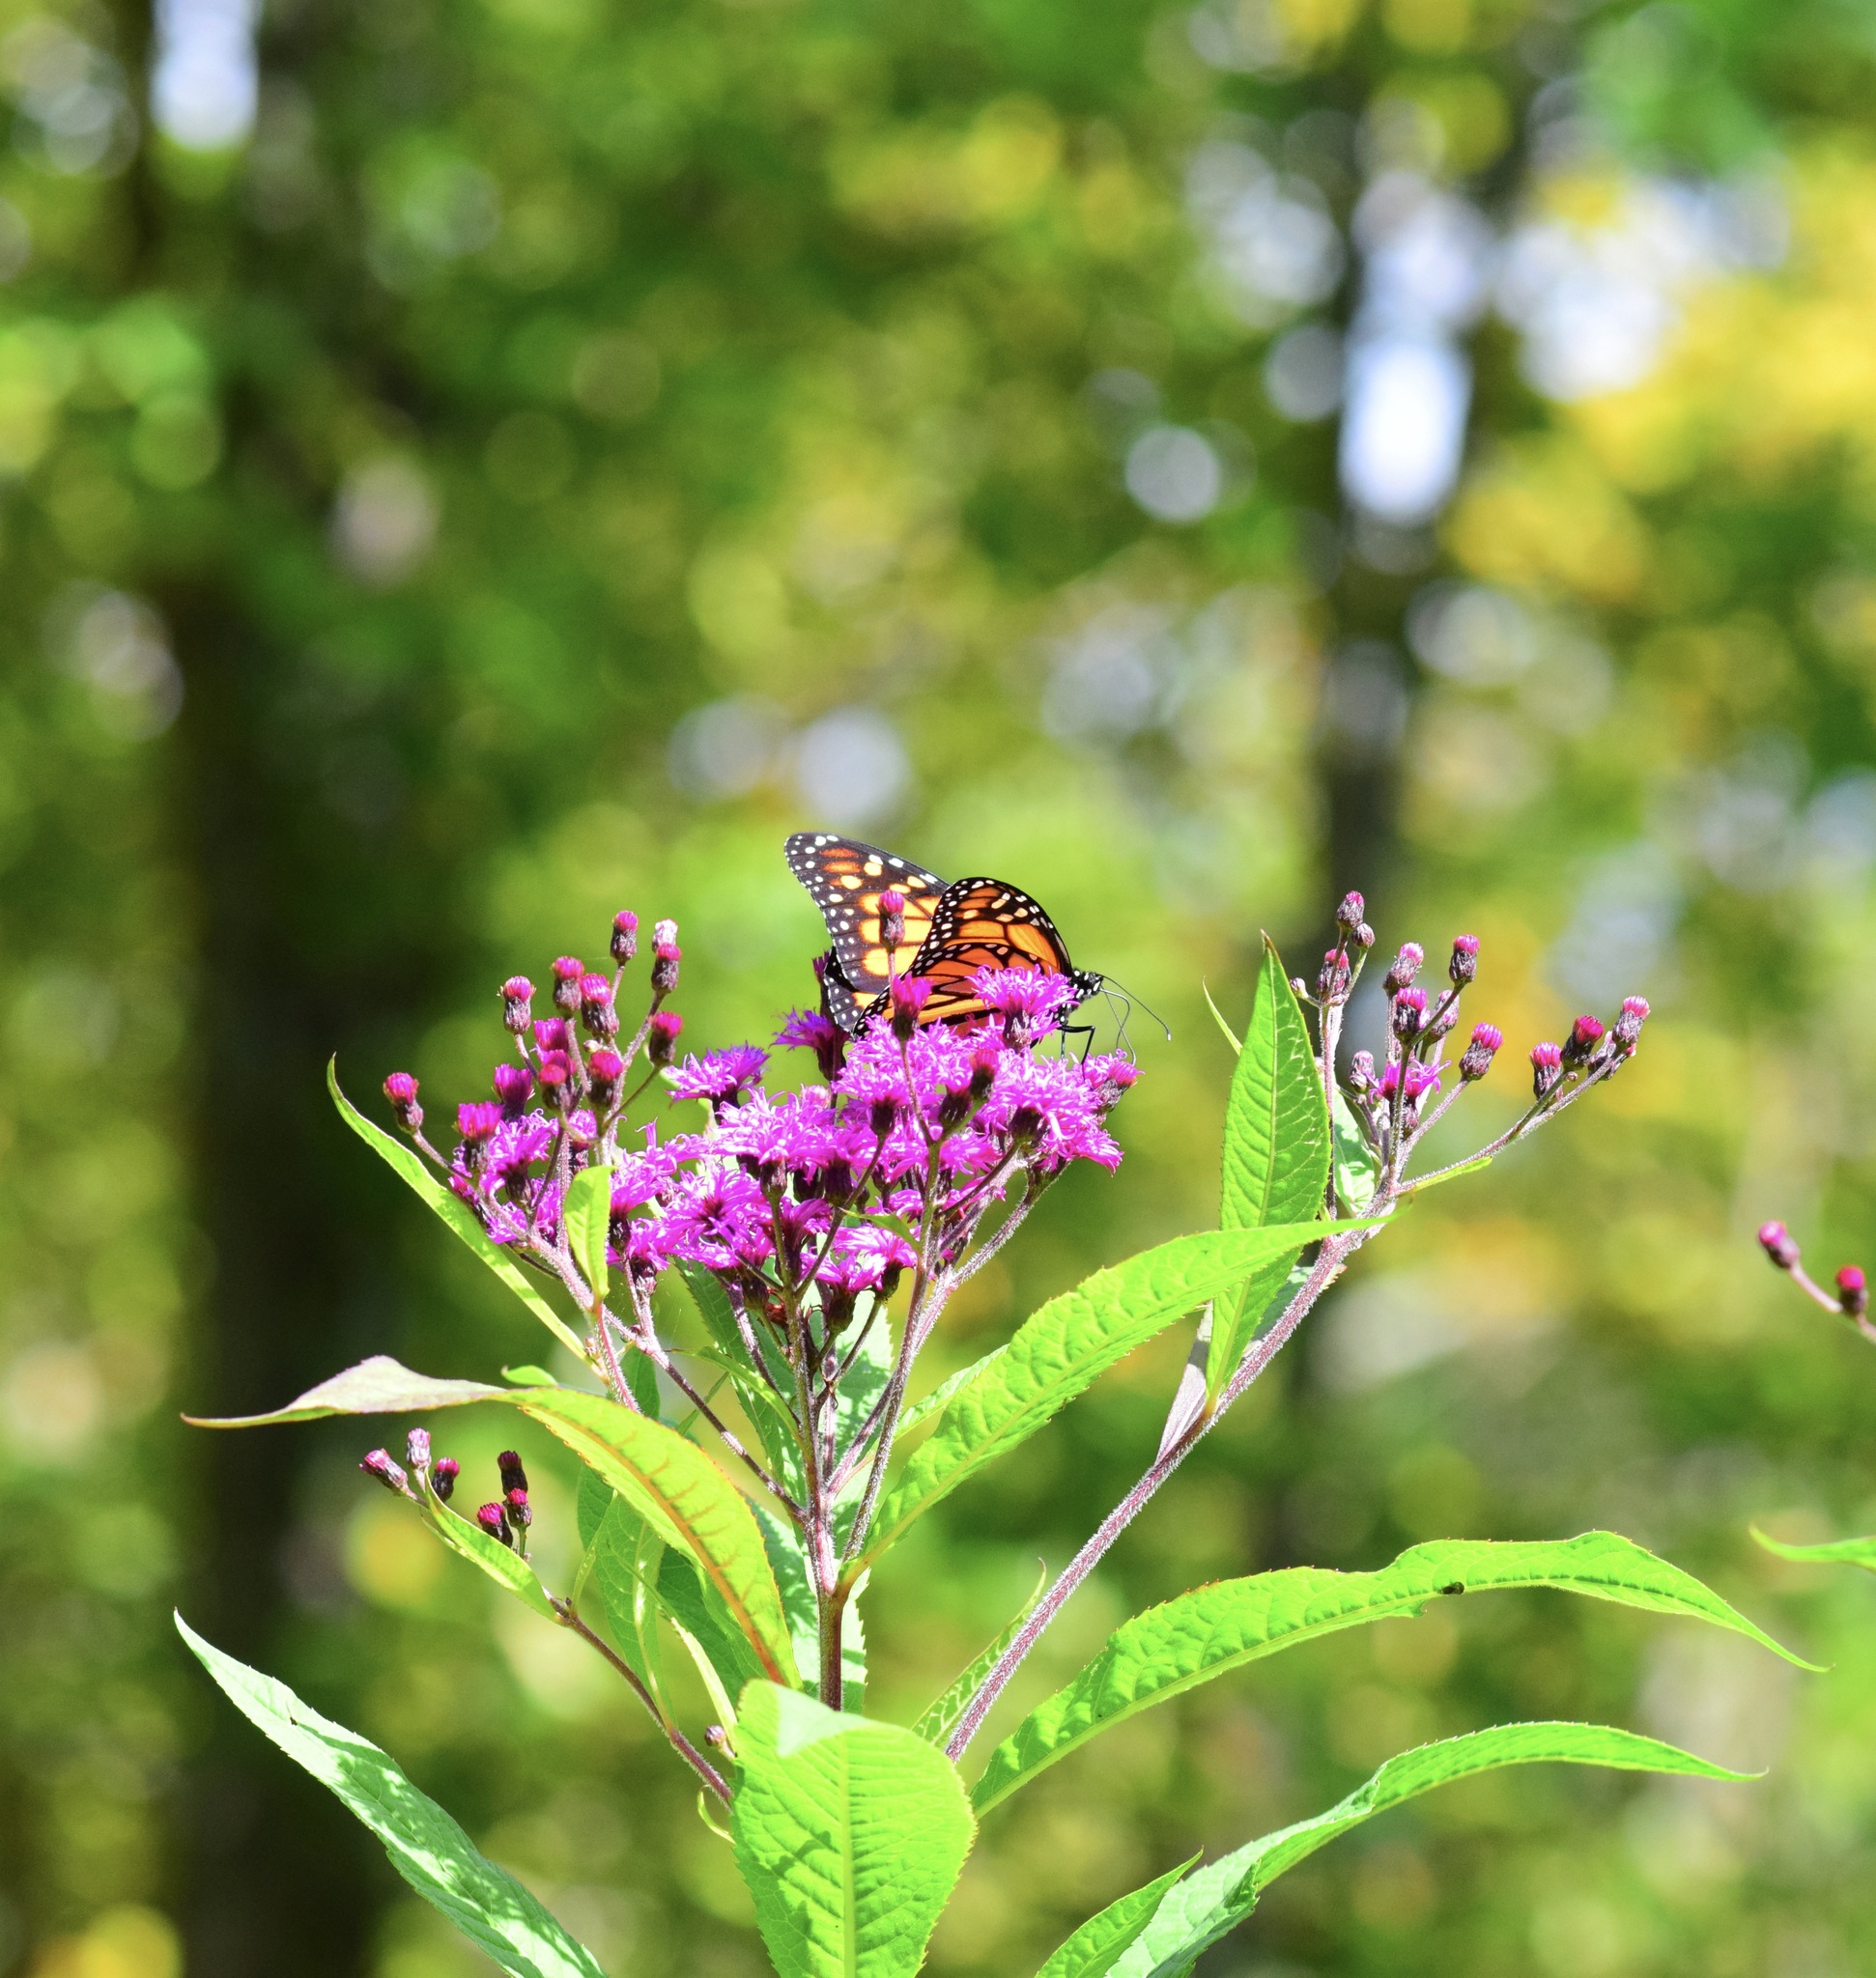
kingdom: Animalia
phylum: Arthropoda
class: Insecta
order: Lepidoptera
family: Nymphalidae
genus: Danaus
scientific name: Danaus plexippus
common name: Monarch
